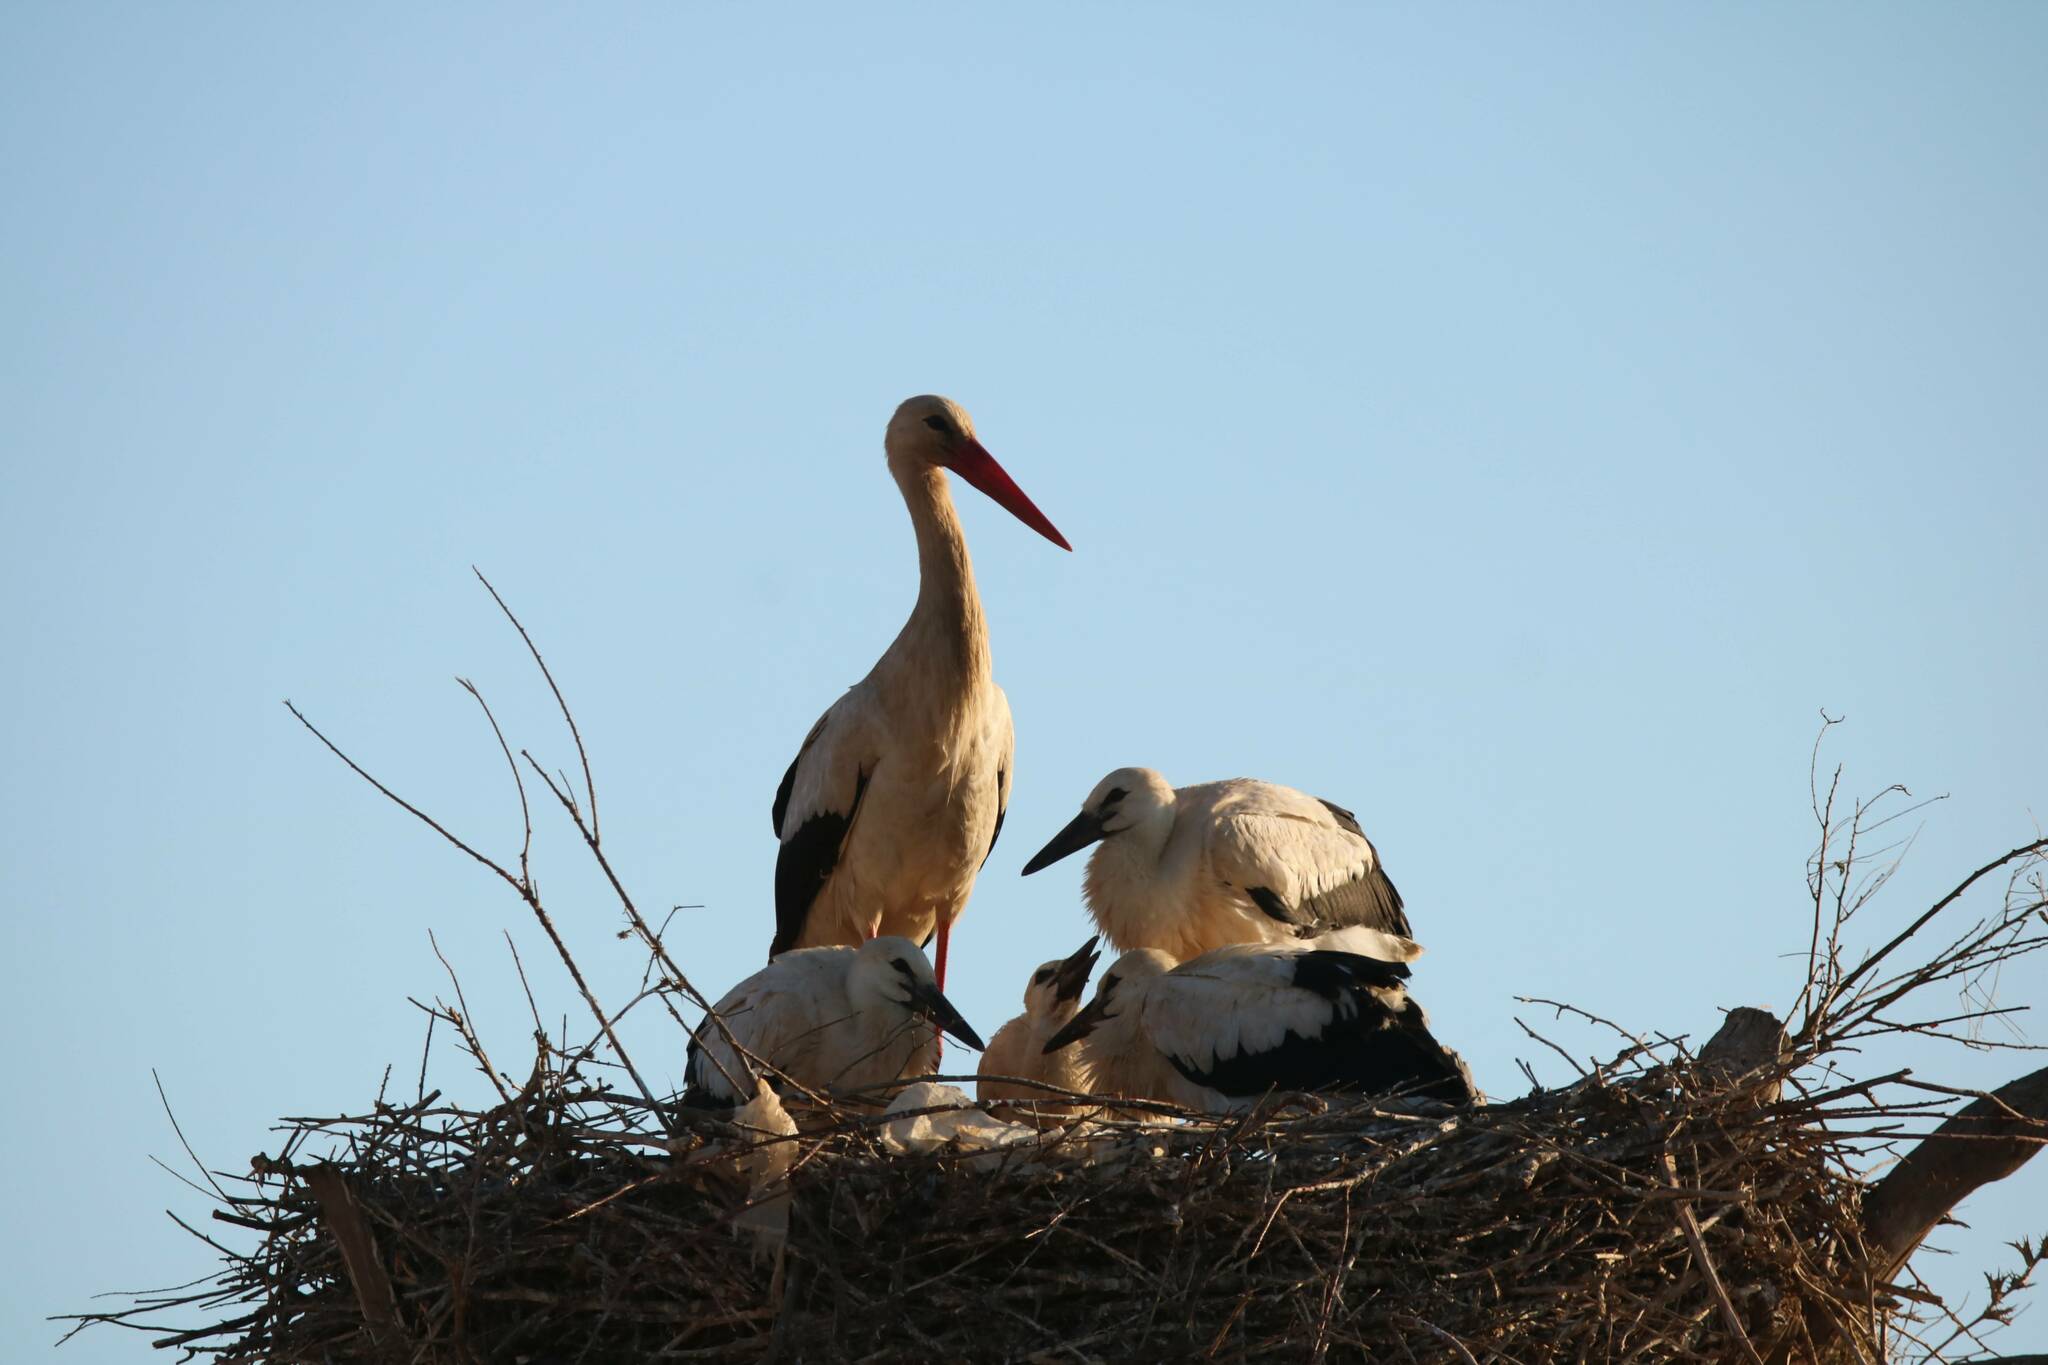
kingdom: Animalia
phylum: Chordata
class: Aves
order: Ciconiiformes
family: Ciconiidae
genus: Ciconia
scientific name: Ciconia ciconia
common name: White stork
